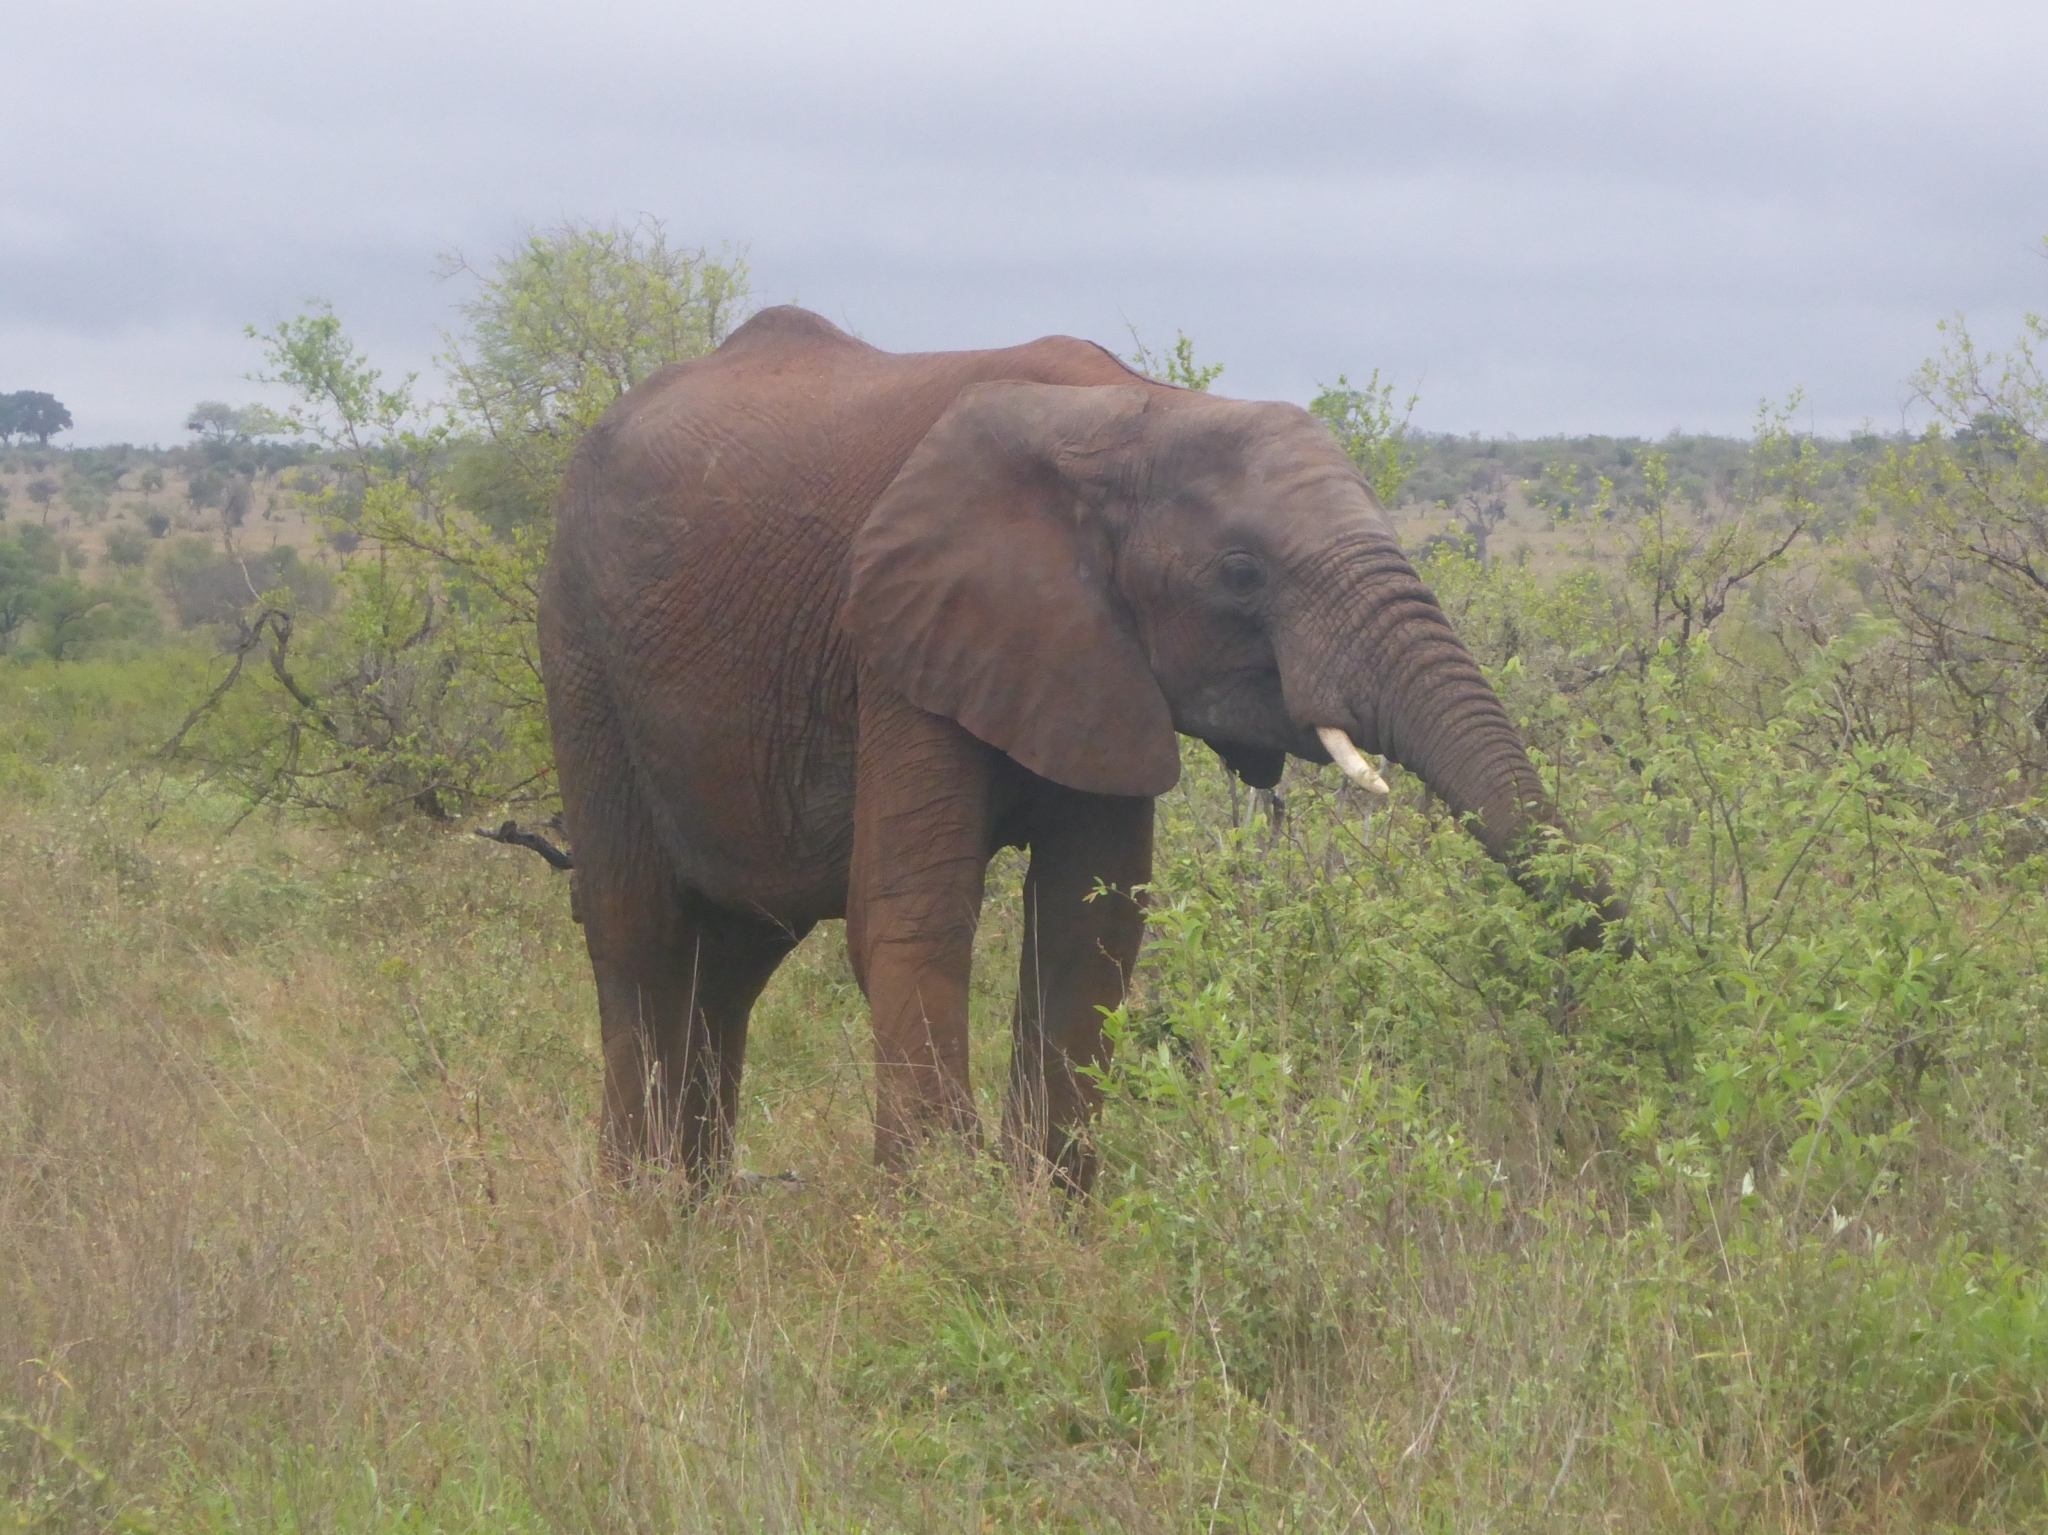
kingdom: Animalia
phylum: Chordata
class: Mammalia
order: Proboscidea
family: Elephantidae
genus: Loxodonta
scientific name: Loxodonta africana
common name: African elephant
